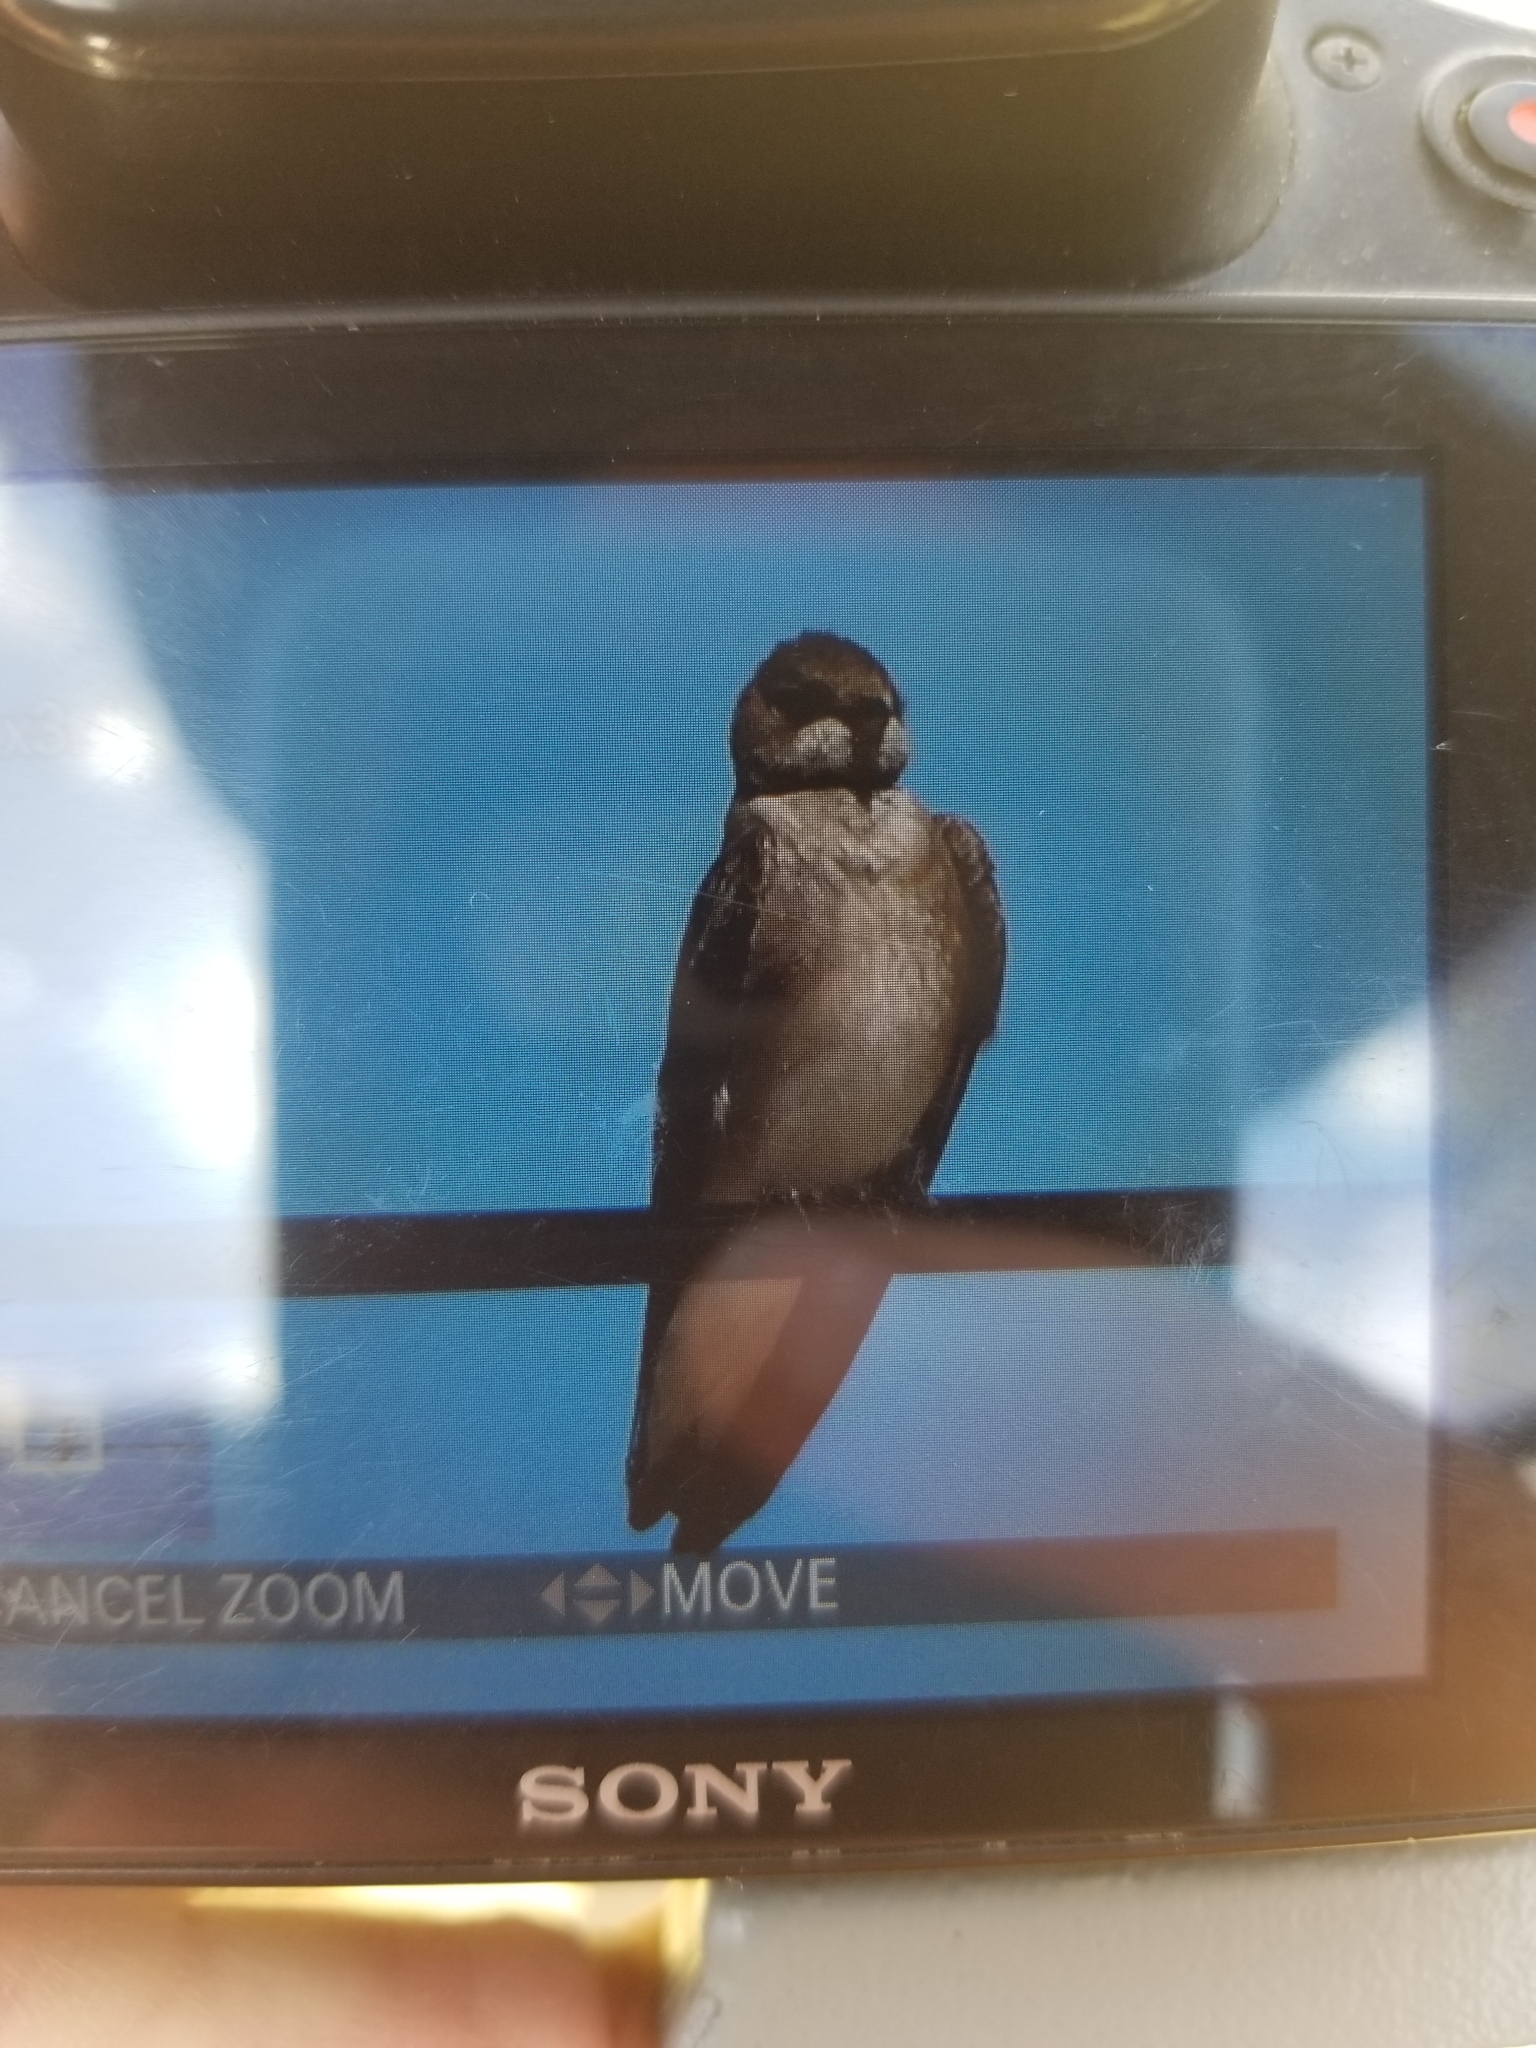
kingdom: Animalia
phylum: Chordata
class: Aves
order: Passeriformes
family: Hirundinidae
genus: Stelgidopteryx
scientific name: Stelgidopteryx serripennis
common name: Northern rough-winged swallow
